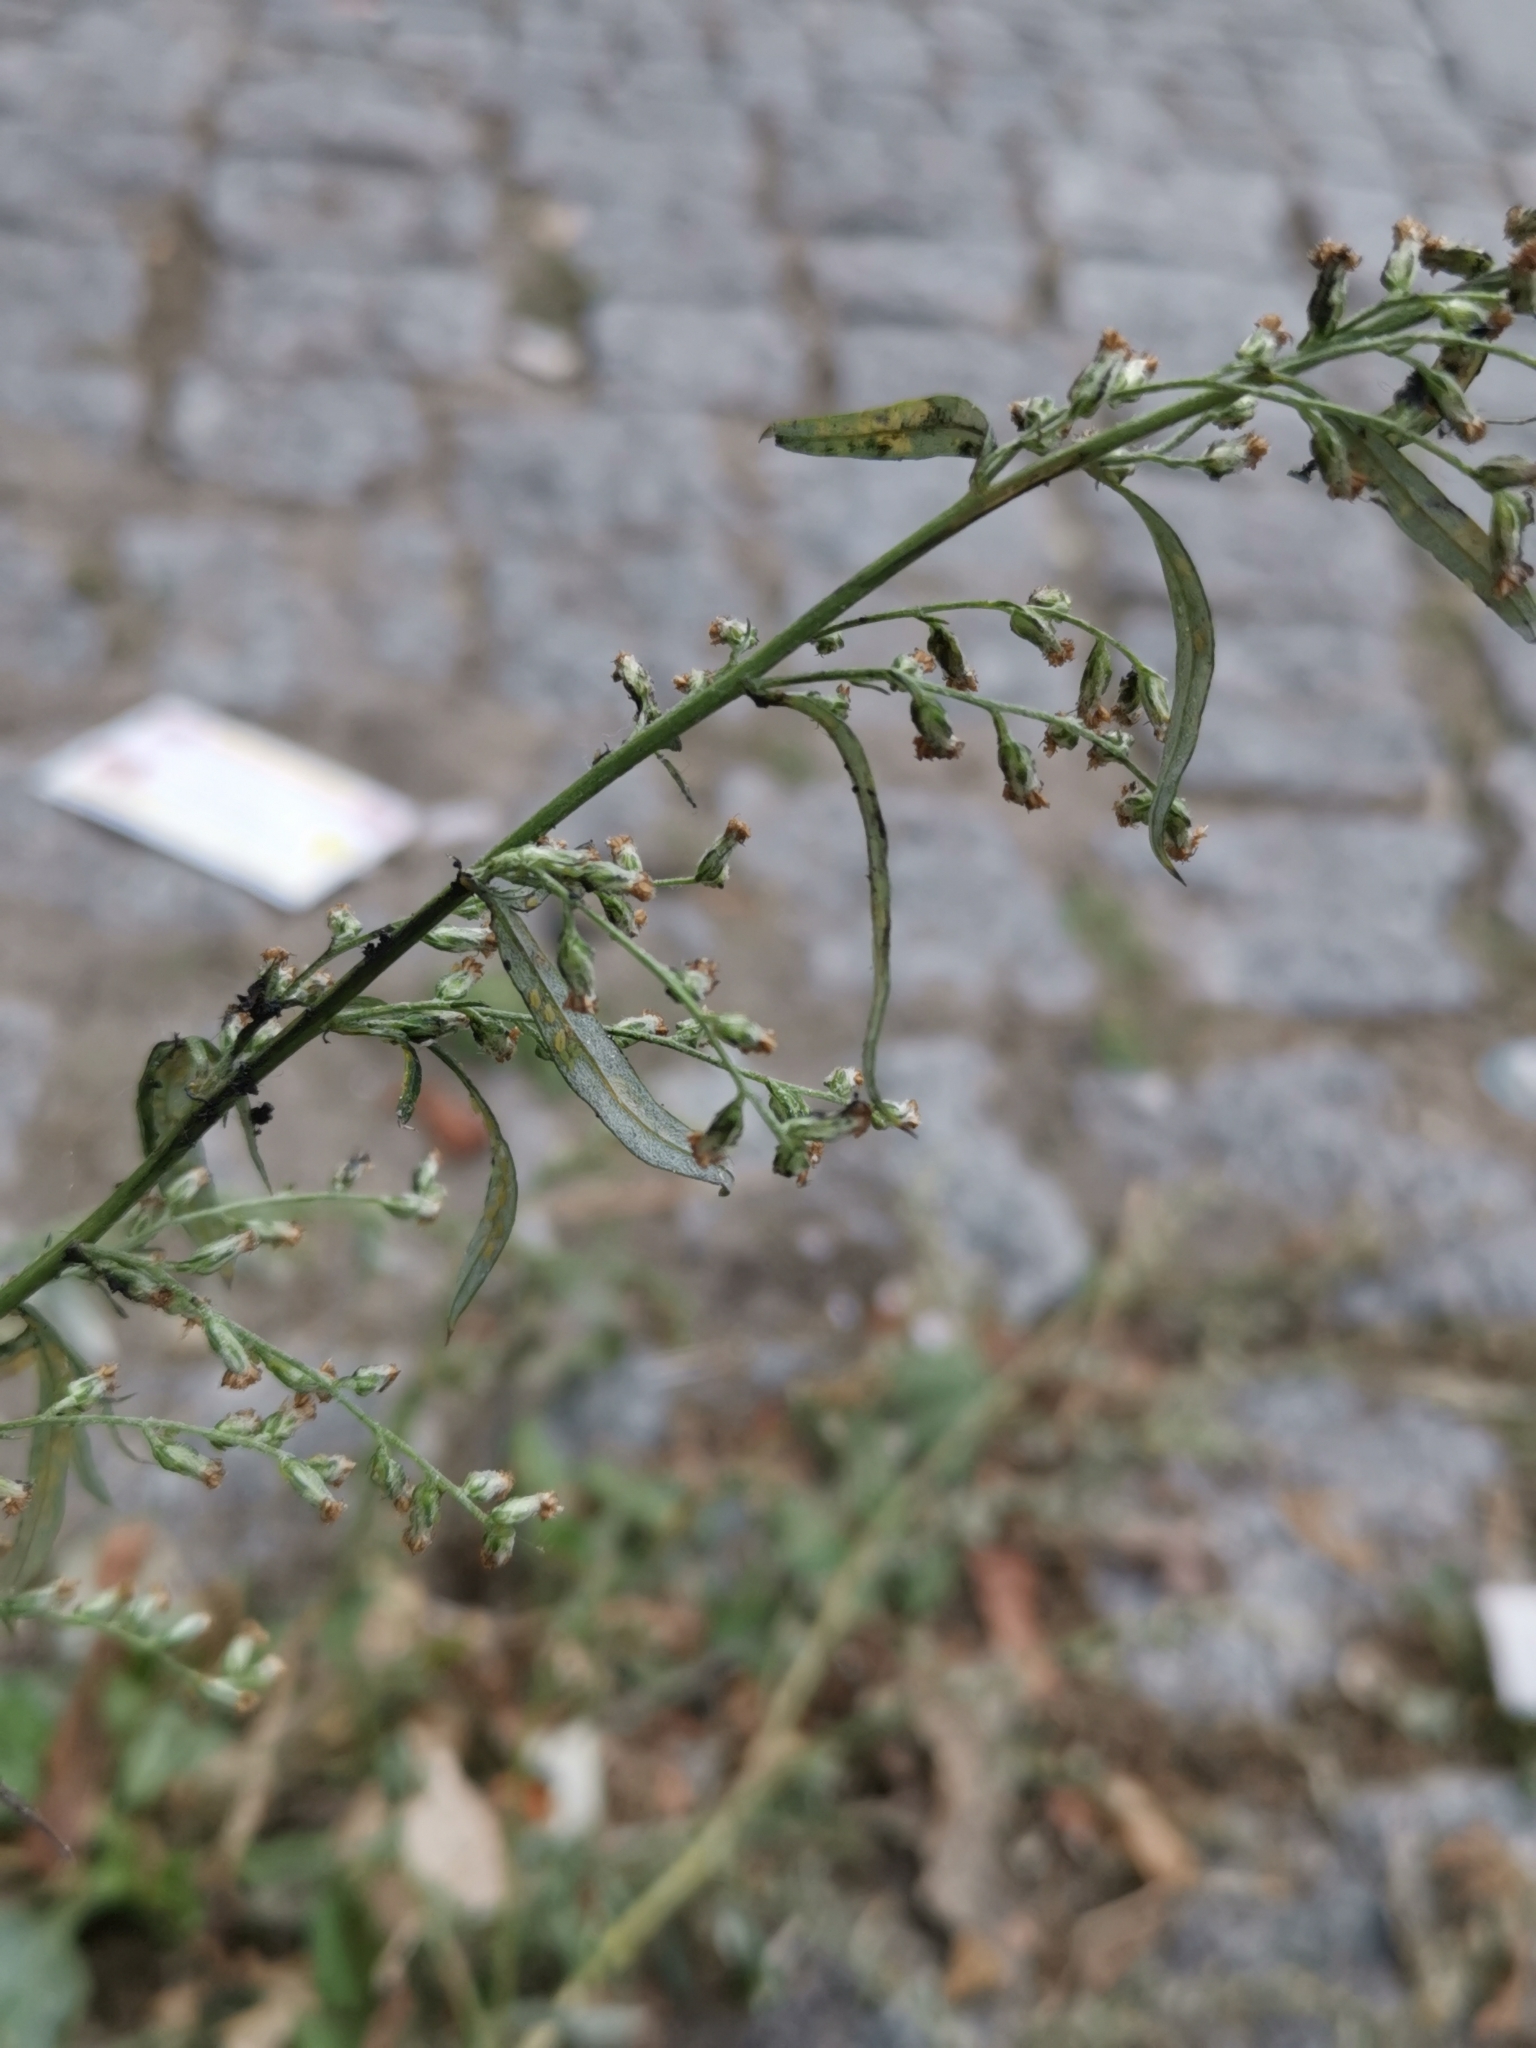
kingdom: Plantae
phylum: Tracheophyta
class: Magnoliopsida
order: Asterales
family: Asteraceae
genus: Artemisia
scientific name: Artemisia vulgaris
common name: Mugwort
